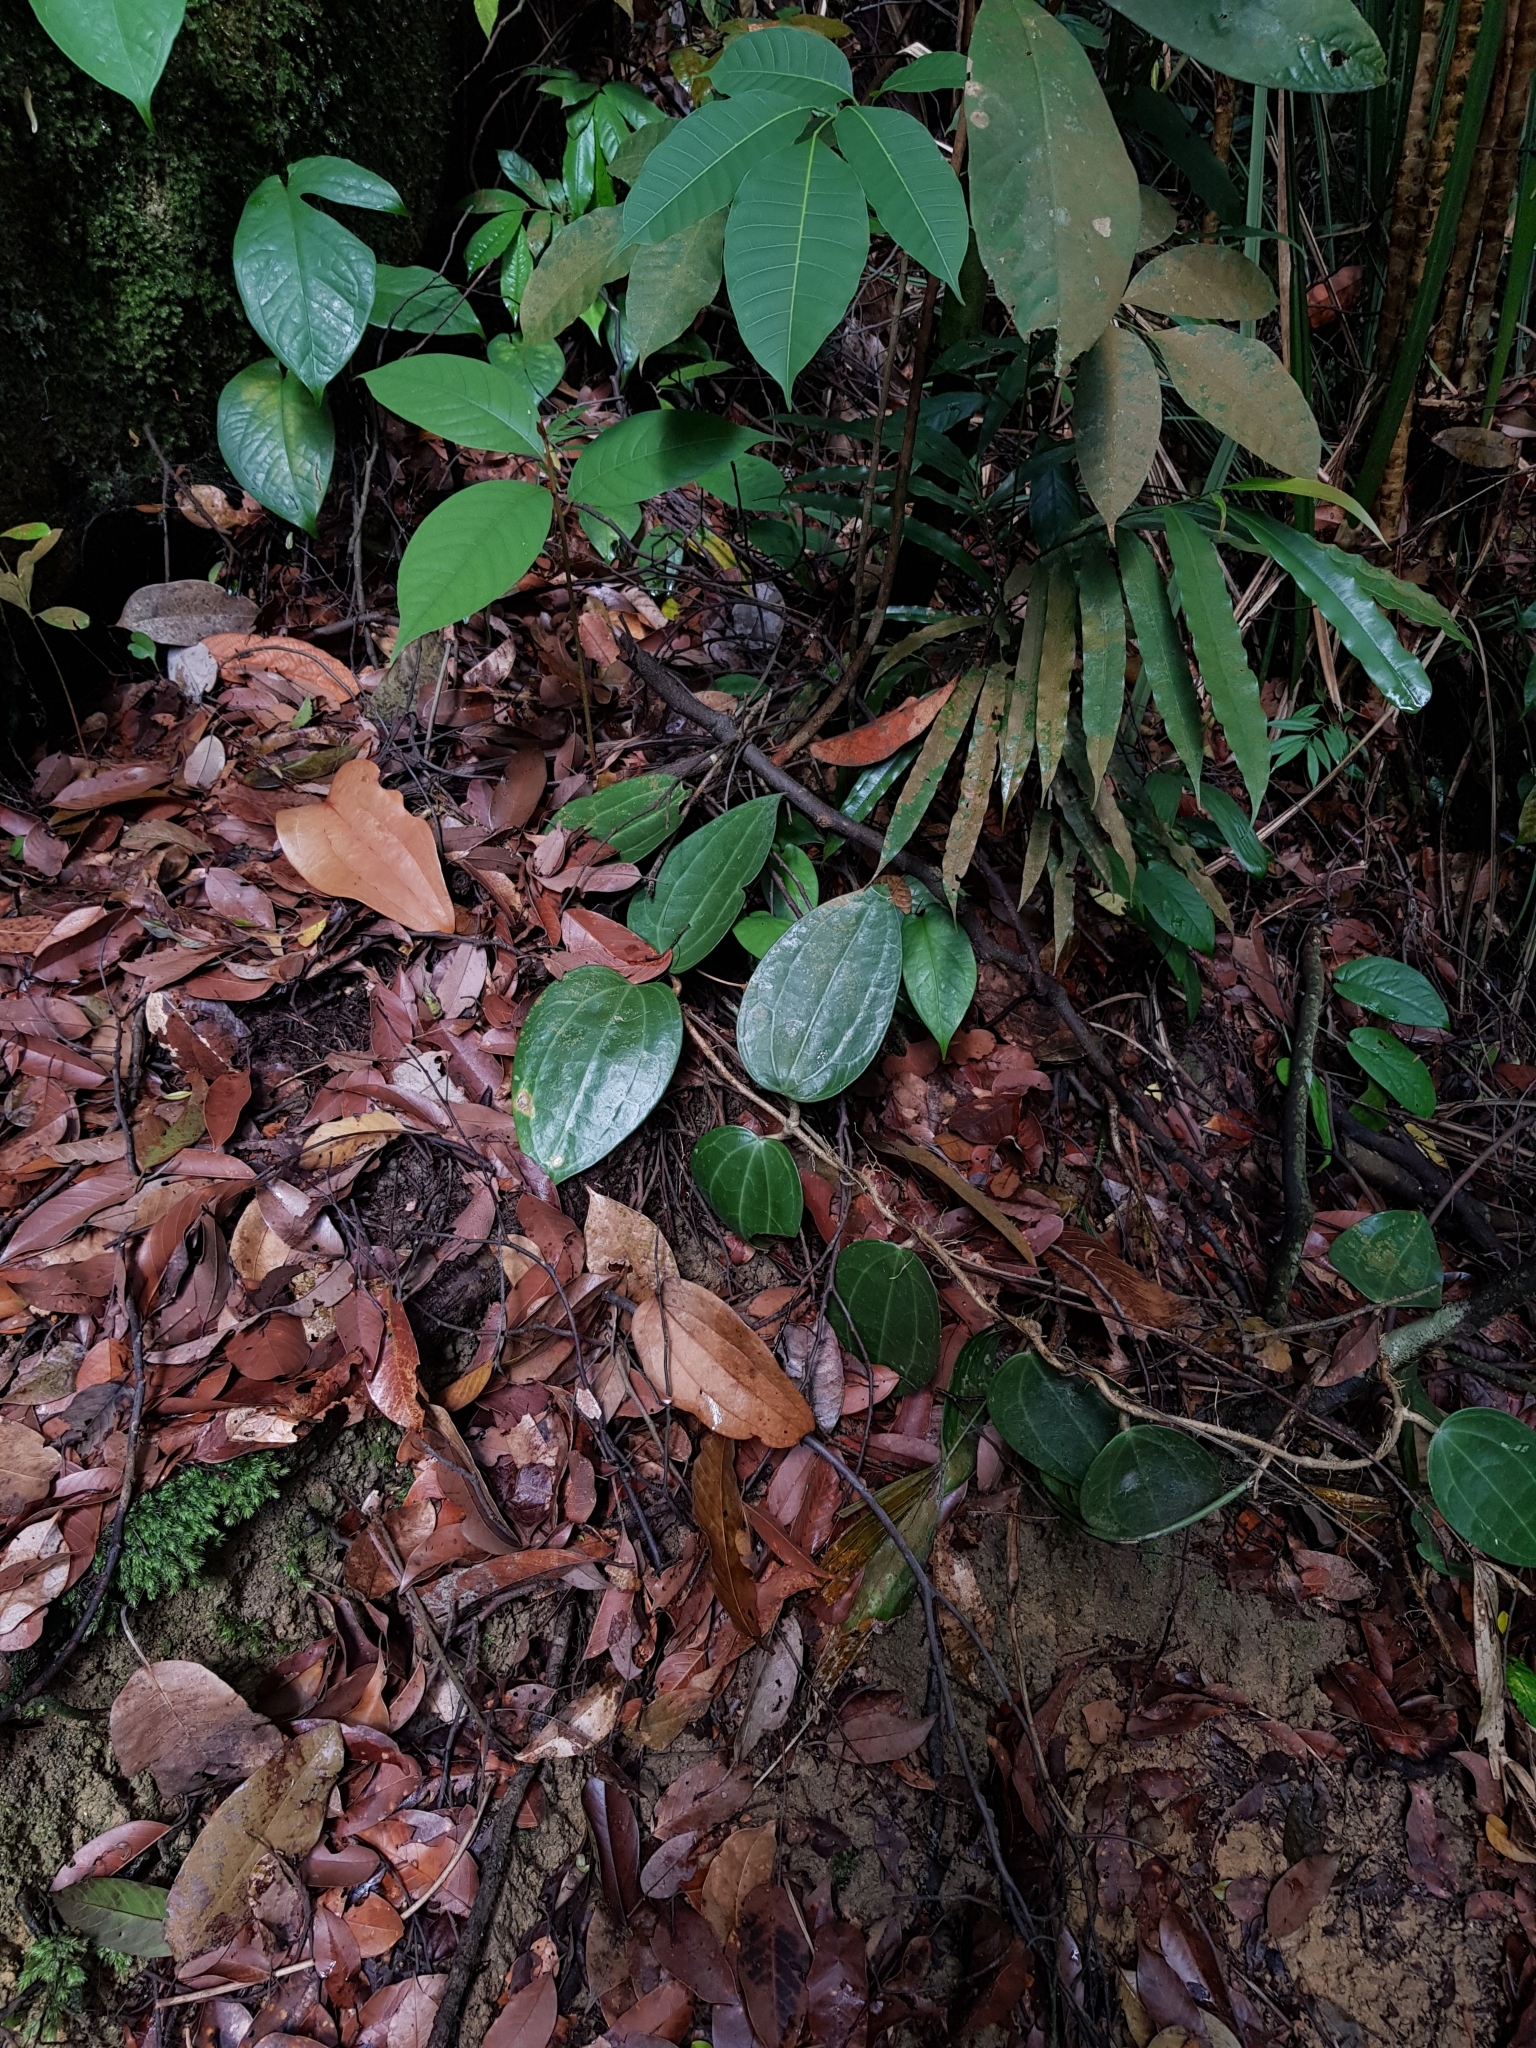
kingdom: Plantae
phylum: Tracheophyta
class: Magnoliopsida
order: Gentianales
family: Apocynaceae
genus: Hoya
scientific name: Hoya latifolia
